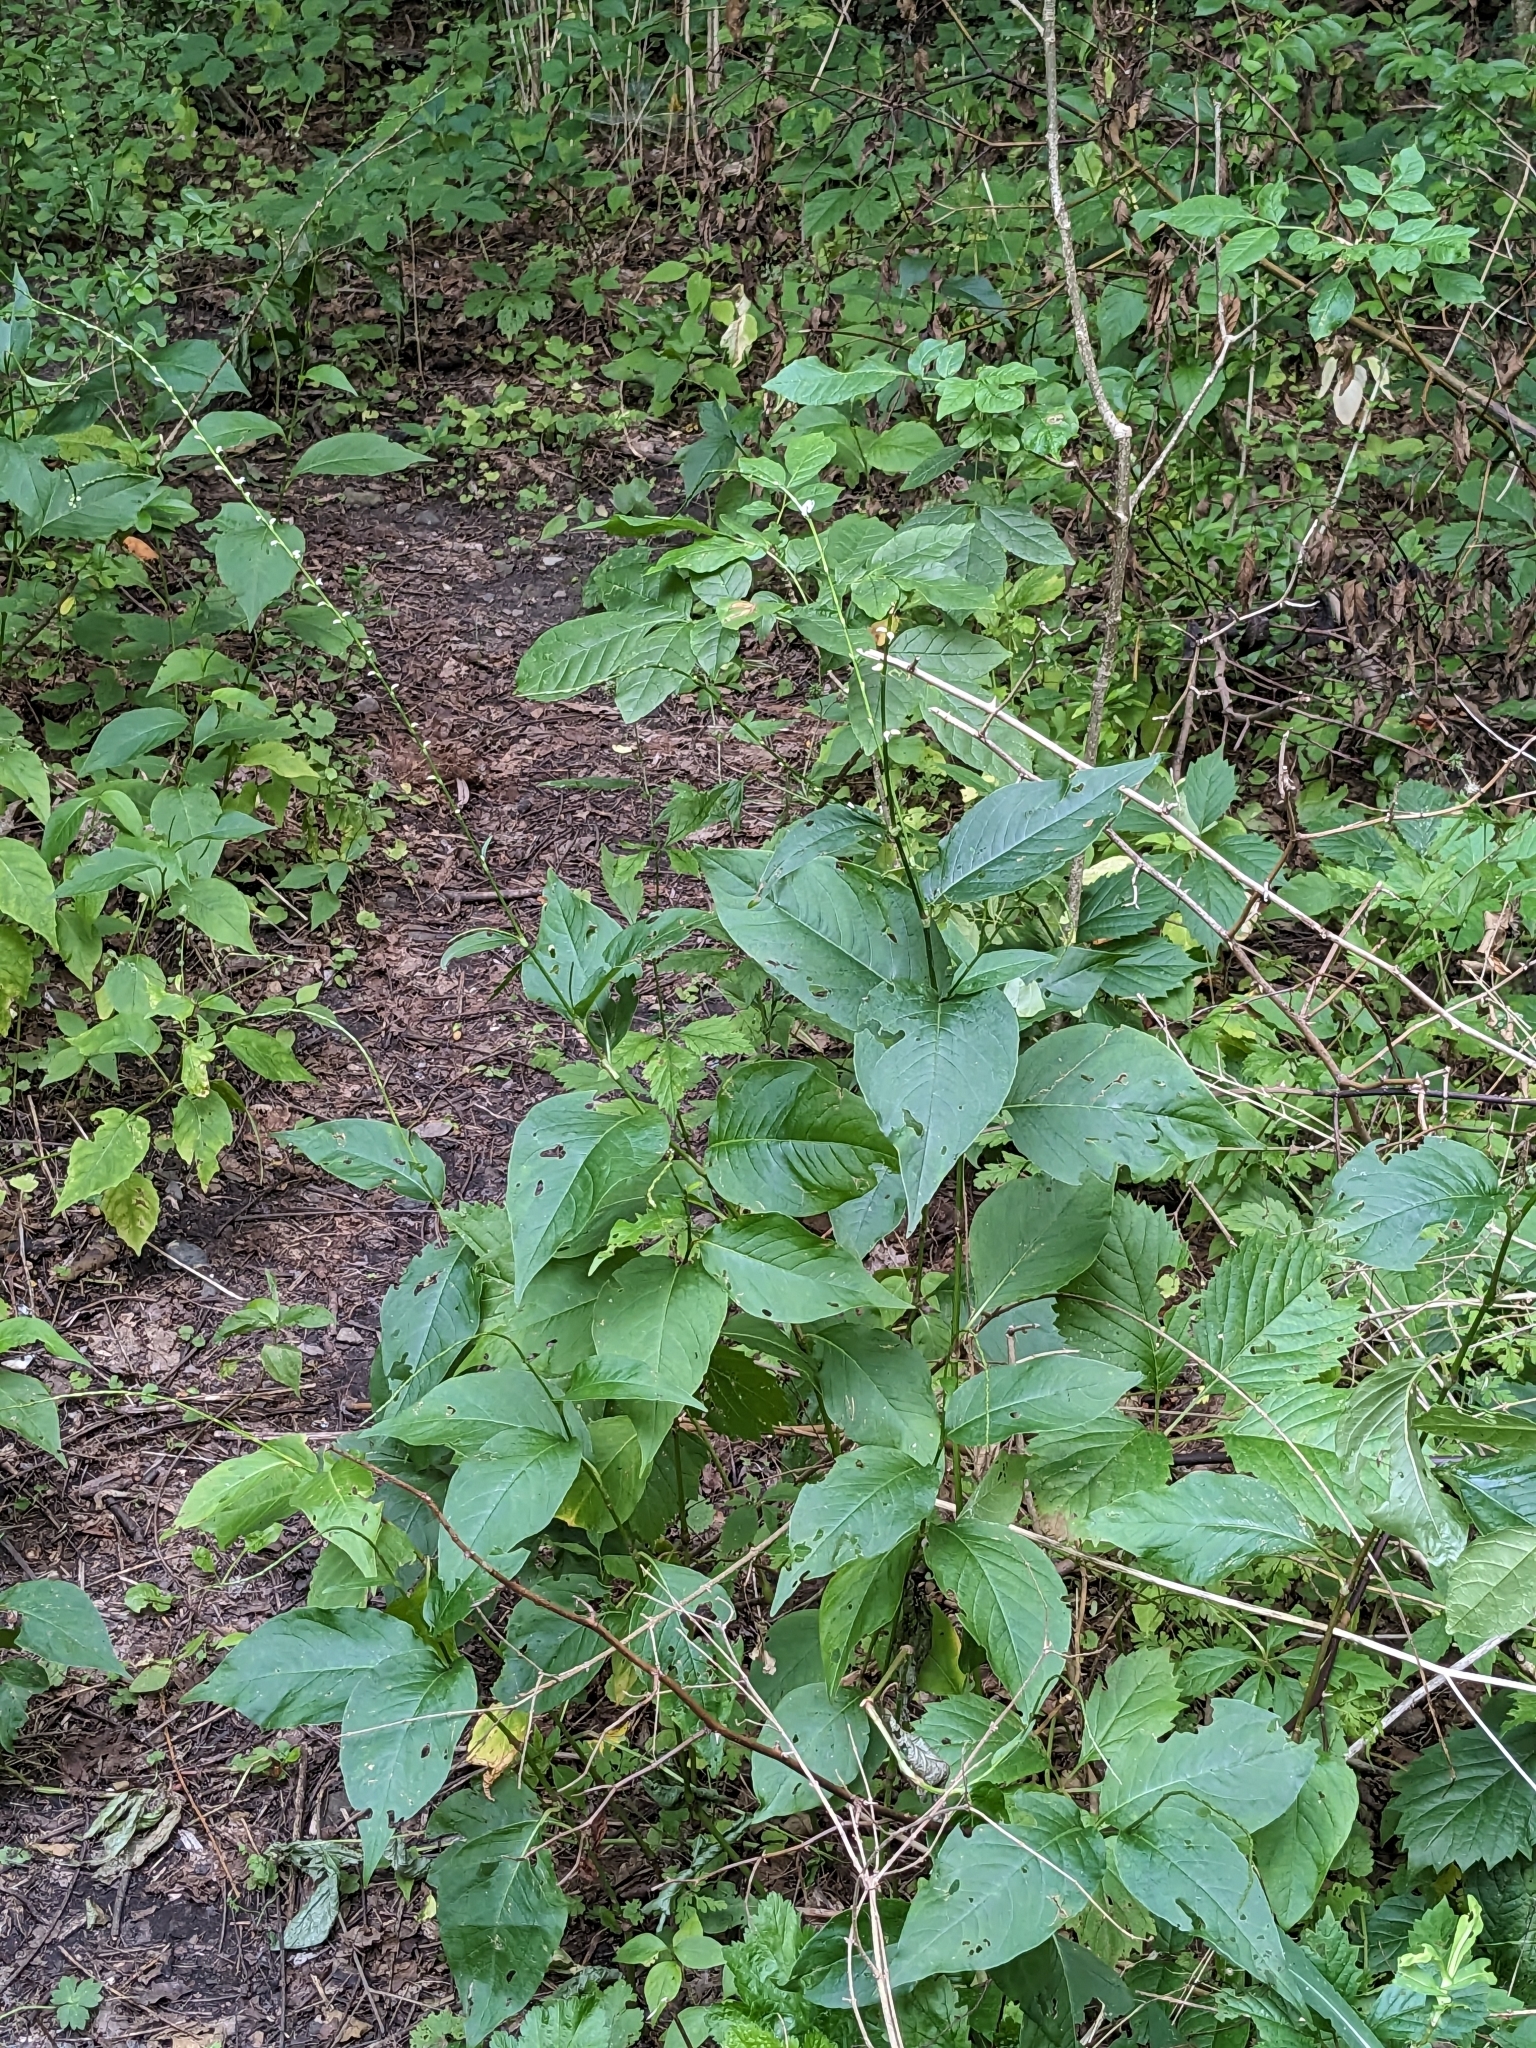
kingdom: Plantae
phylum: Tracheophyta
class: Magnoliopsida
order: Caryophyllales
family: Polygonaceae
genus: Persicaria
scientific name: Persicaria virginiana
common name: Jumpseed
